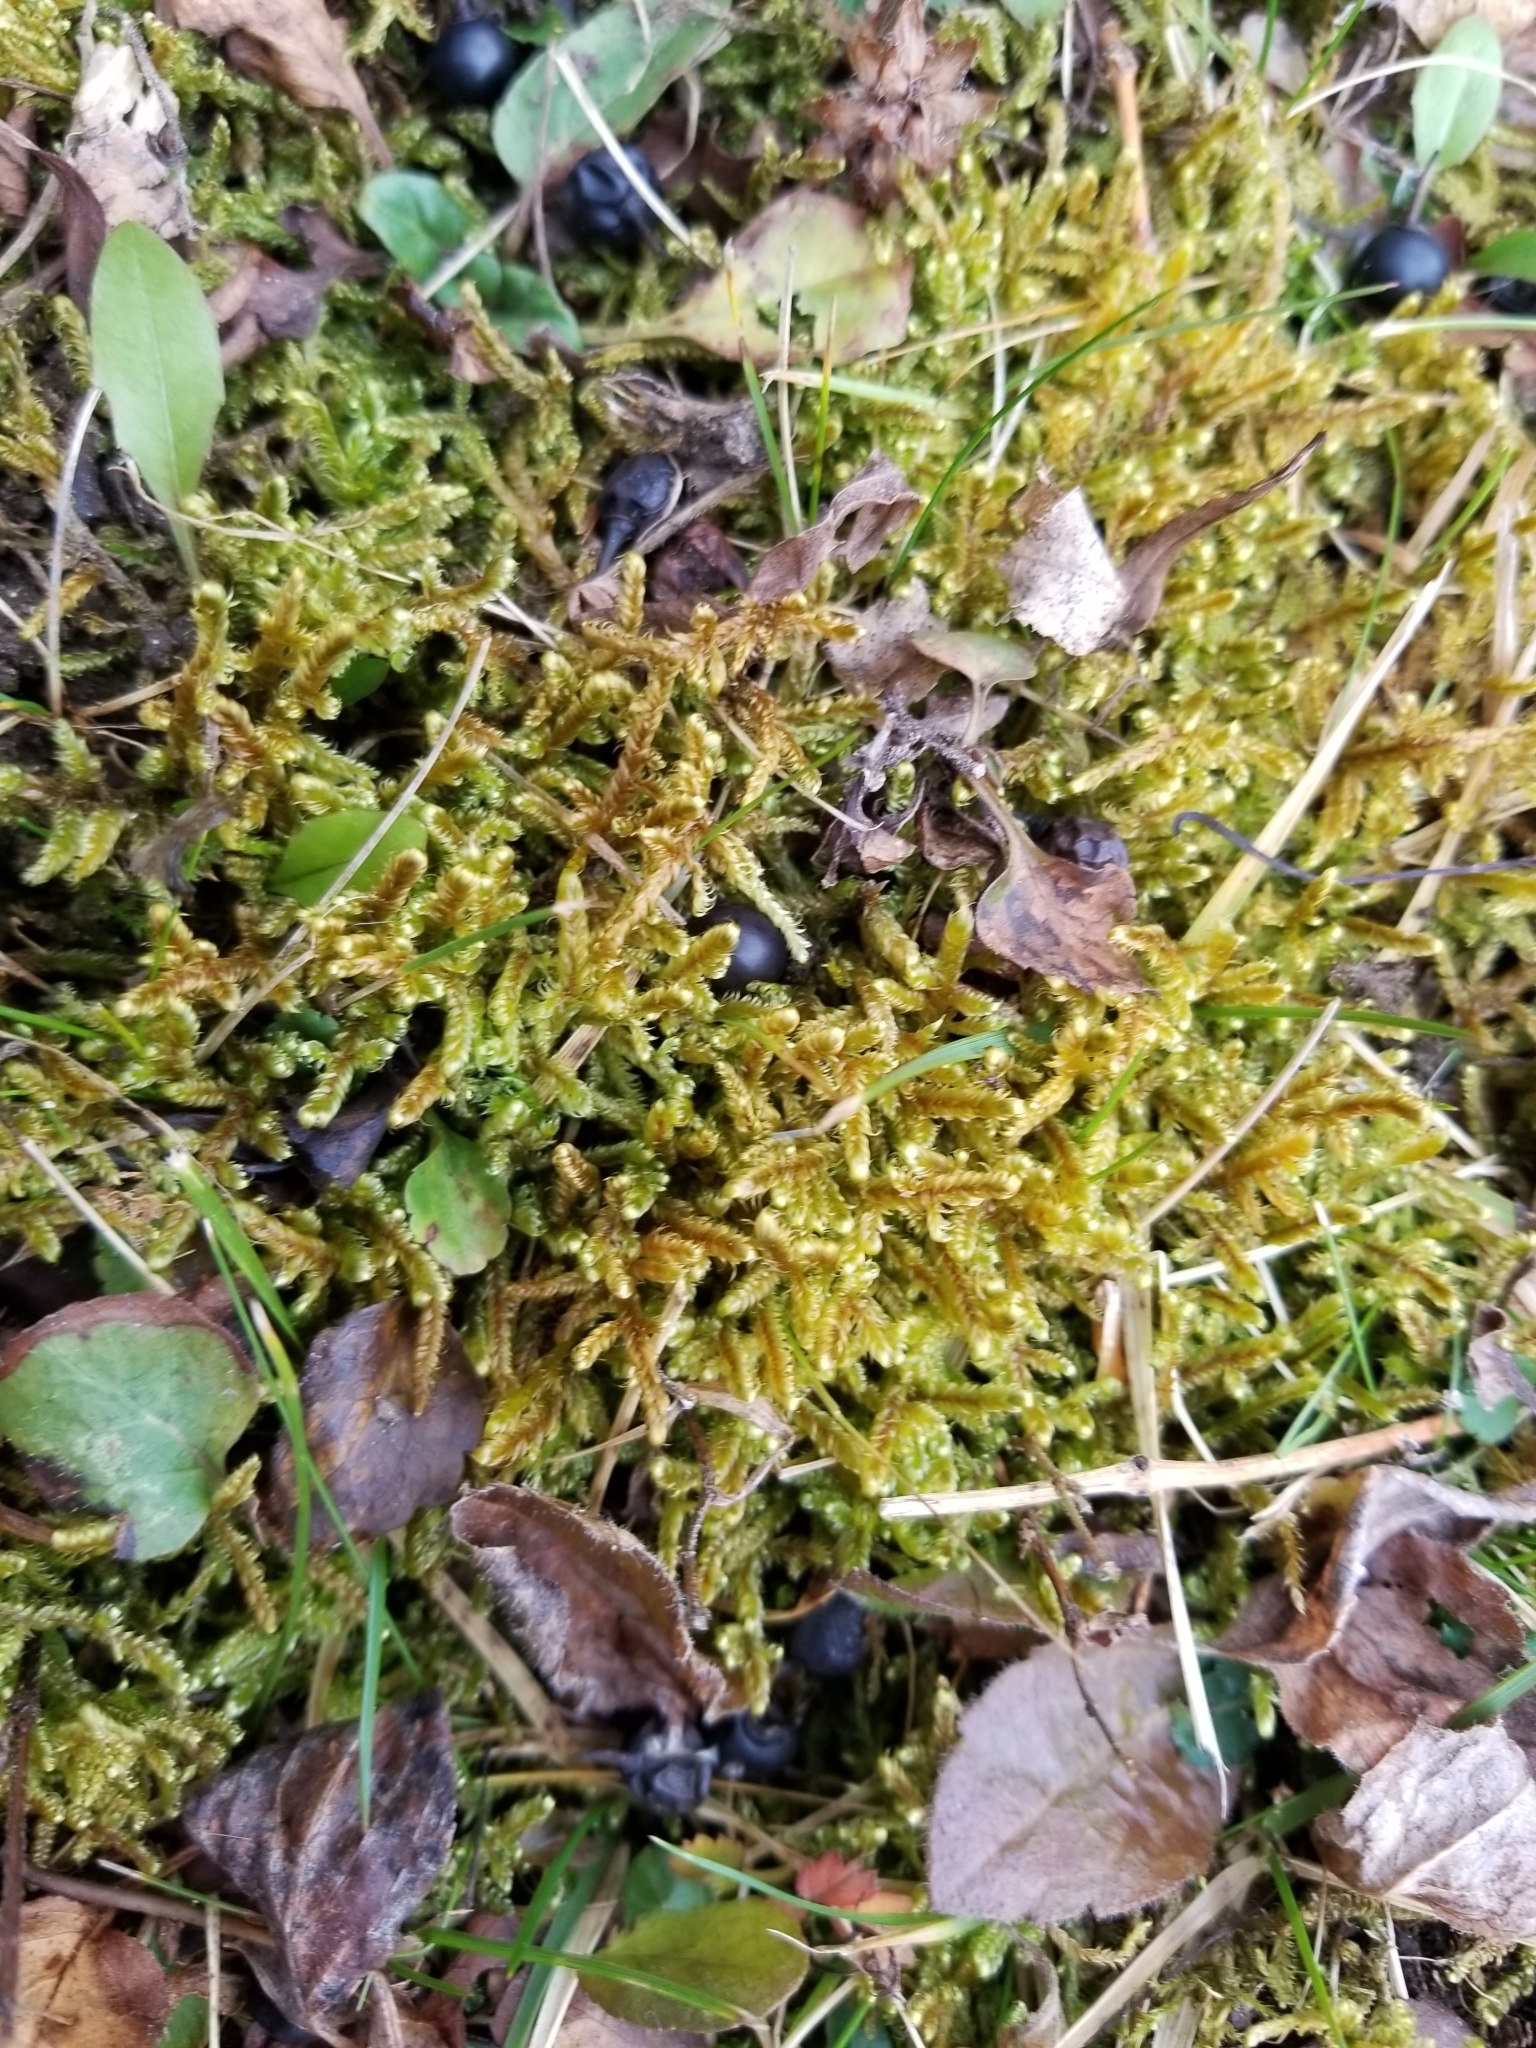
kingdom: Plantae
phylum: Bryophyta
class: Bryopsida
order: Hypnales
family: Pylaisiaceae
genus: Calliergonella
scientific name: Calliergonella lindbergii
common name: Lindberg's plait-moss
